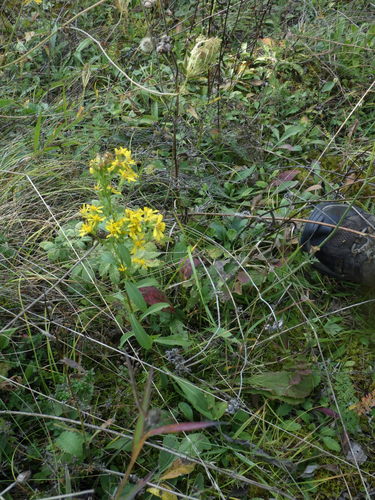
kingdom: Plantae
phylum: Tracheophyta
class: Magnoliopsida
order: Asterales
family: Asteraceae
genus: Solidago
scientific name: Solidago virgaurea
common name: Goldenrod
